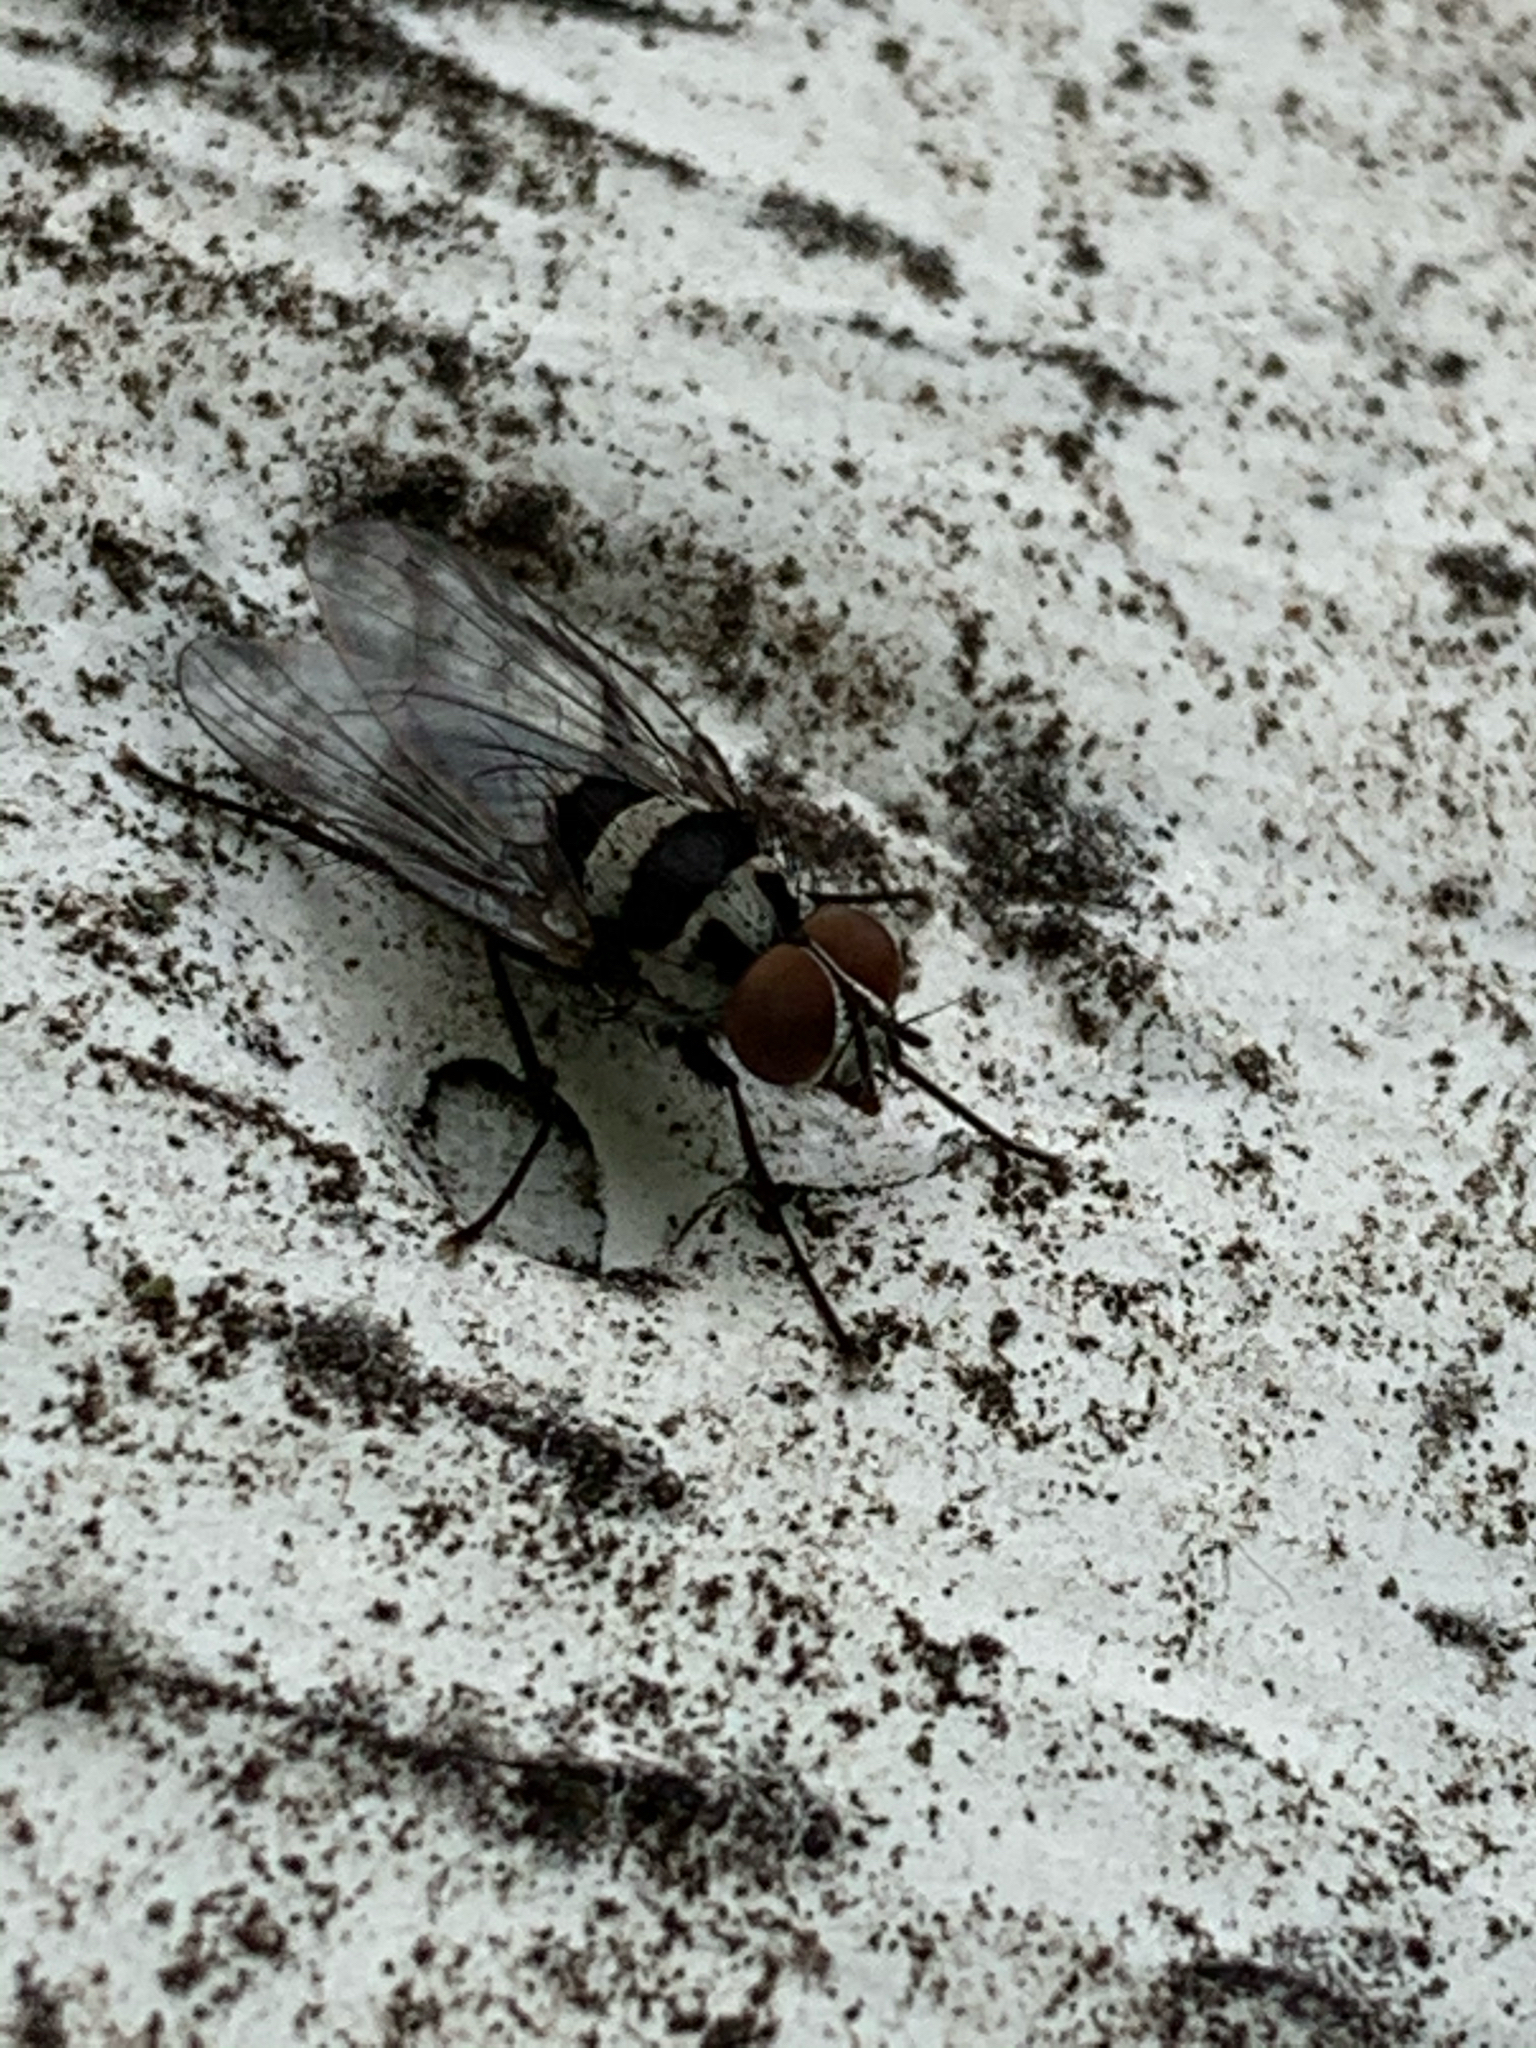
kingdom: Animalia
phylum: Arthropoda
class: Insecta
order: Diptera
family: Anthomyiidae
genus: Anthomyia
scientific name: Anthomyia oculifera
